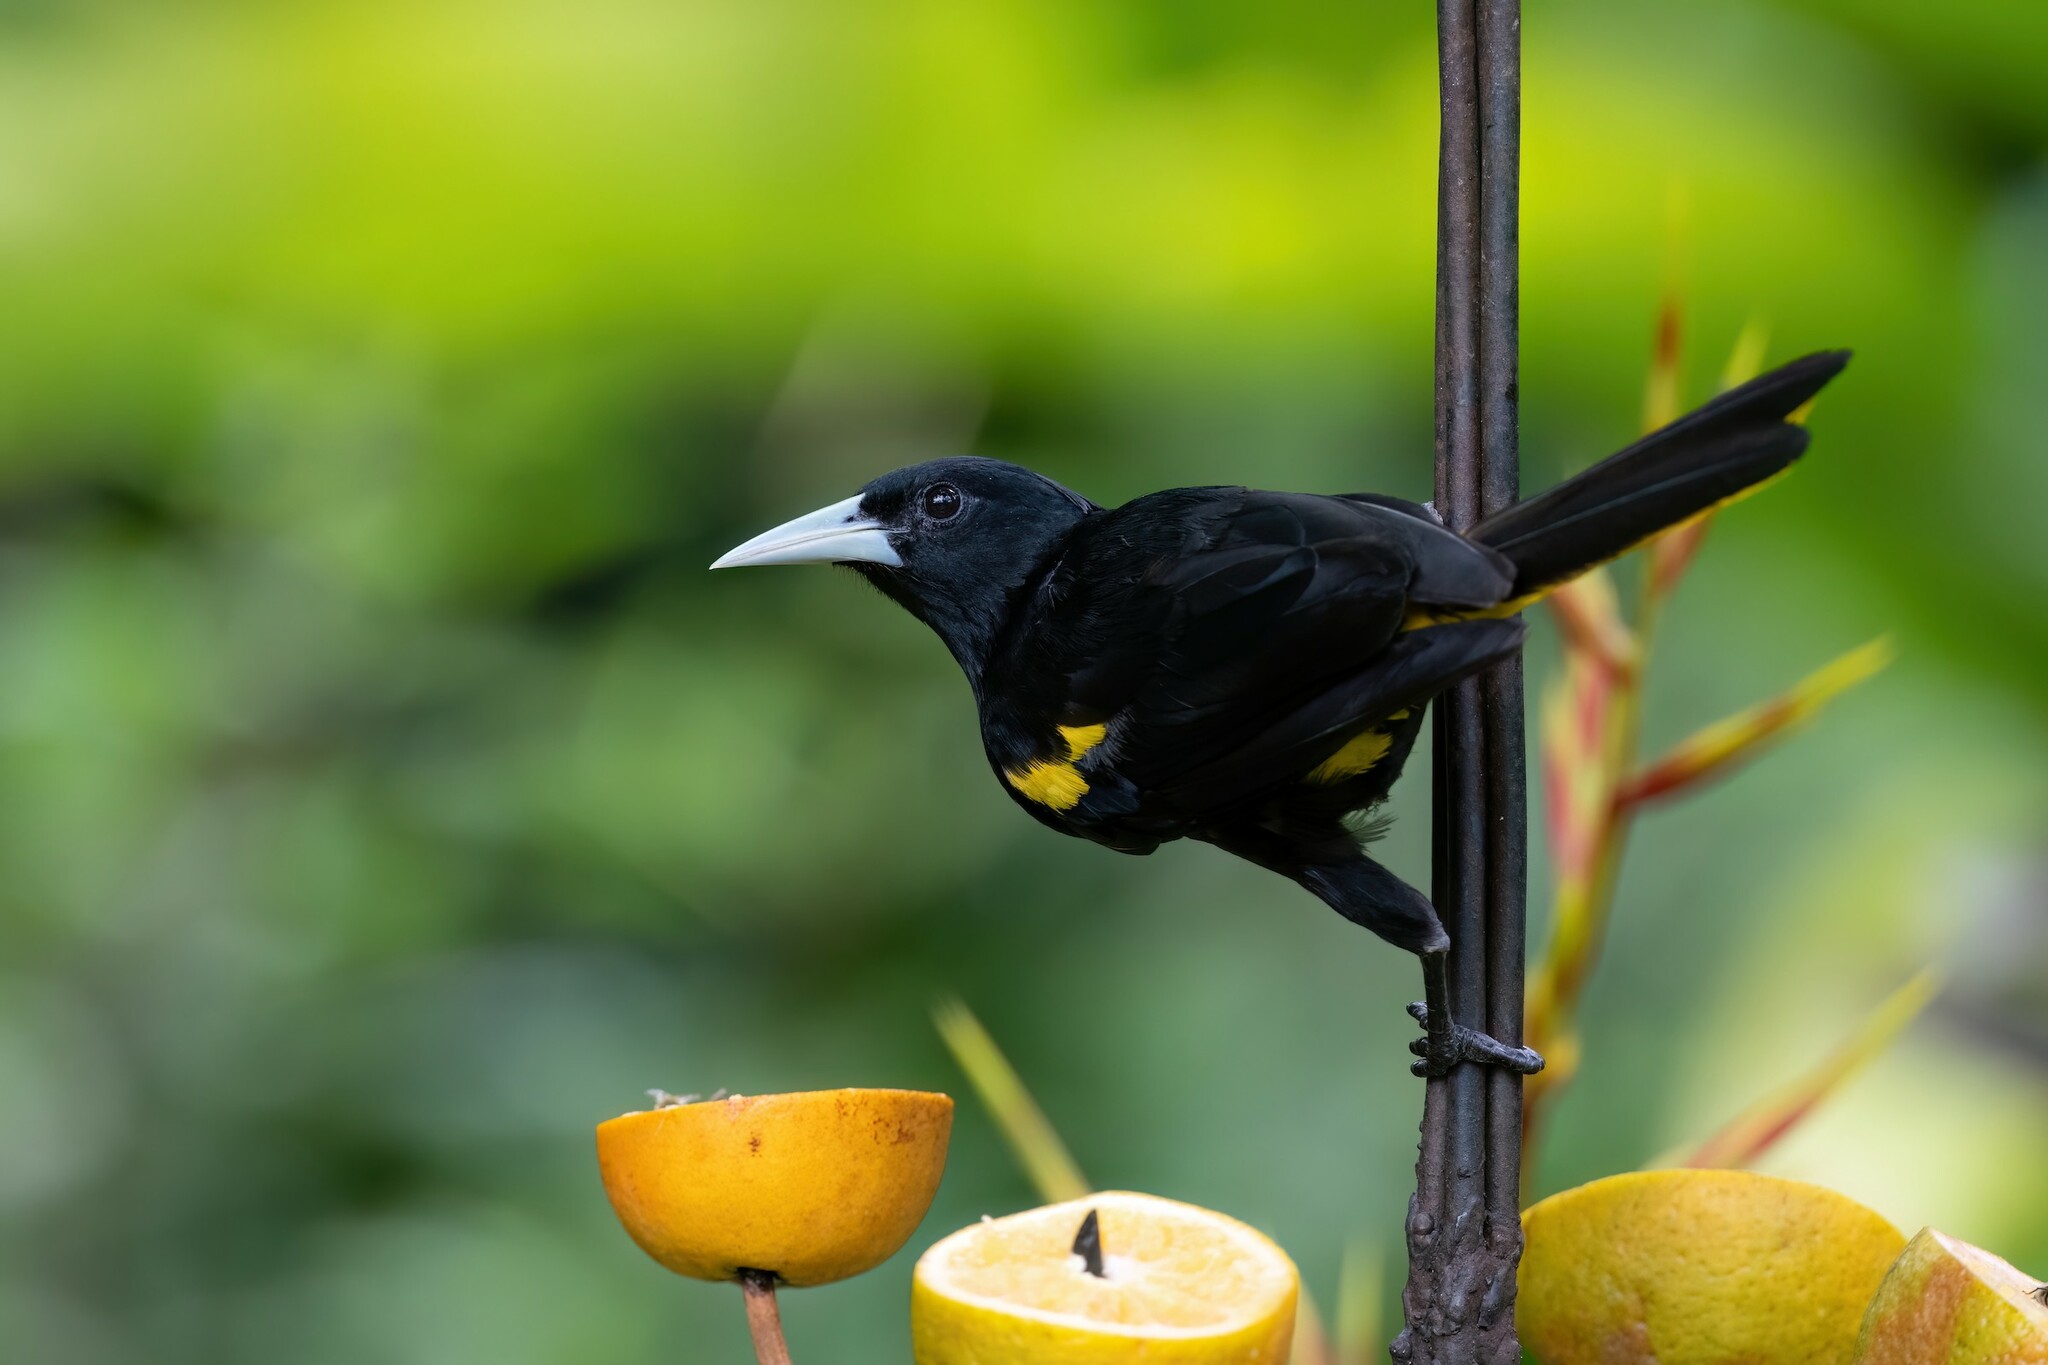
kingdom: Animalia
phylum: Chordata
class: Aves
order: Passeriformes
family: Icteridae
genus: Cacicus
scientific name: Cacicus melanicterus
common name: Yellow-winged cacique
